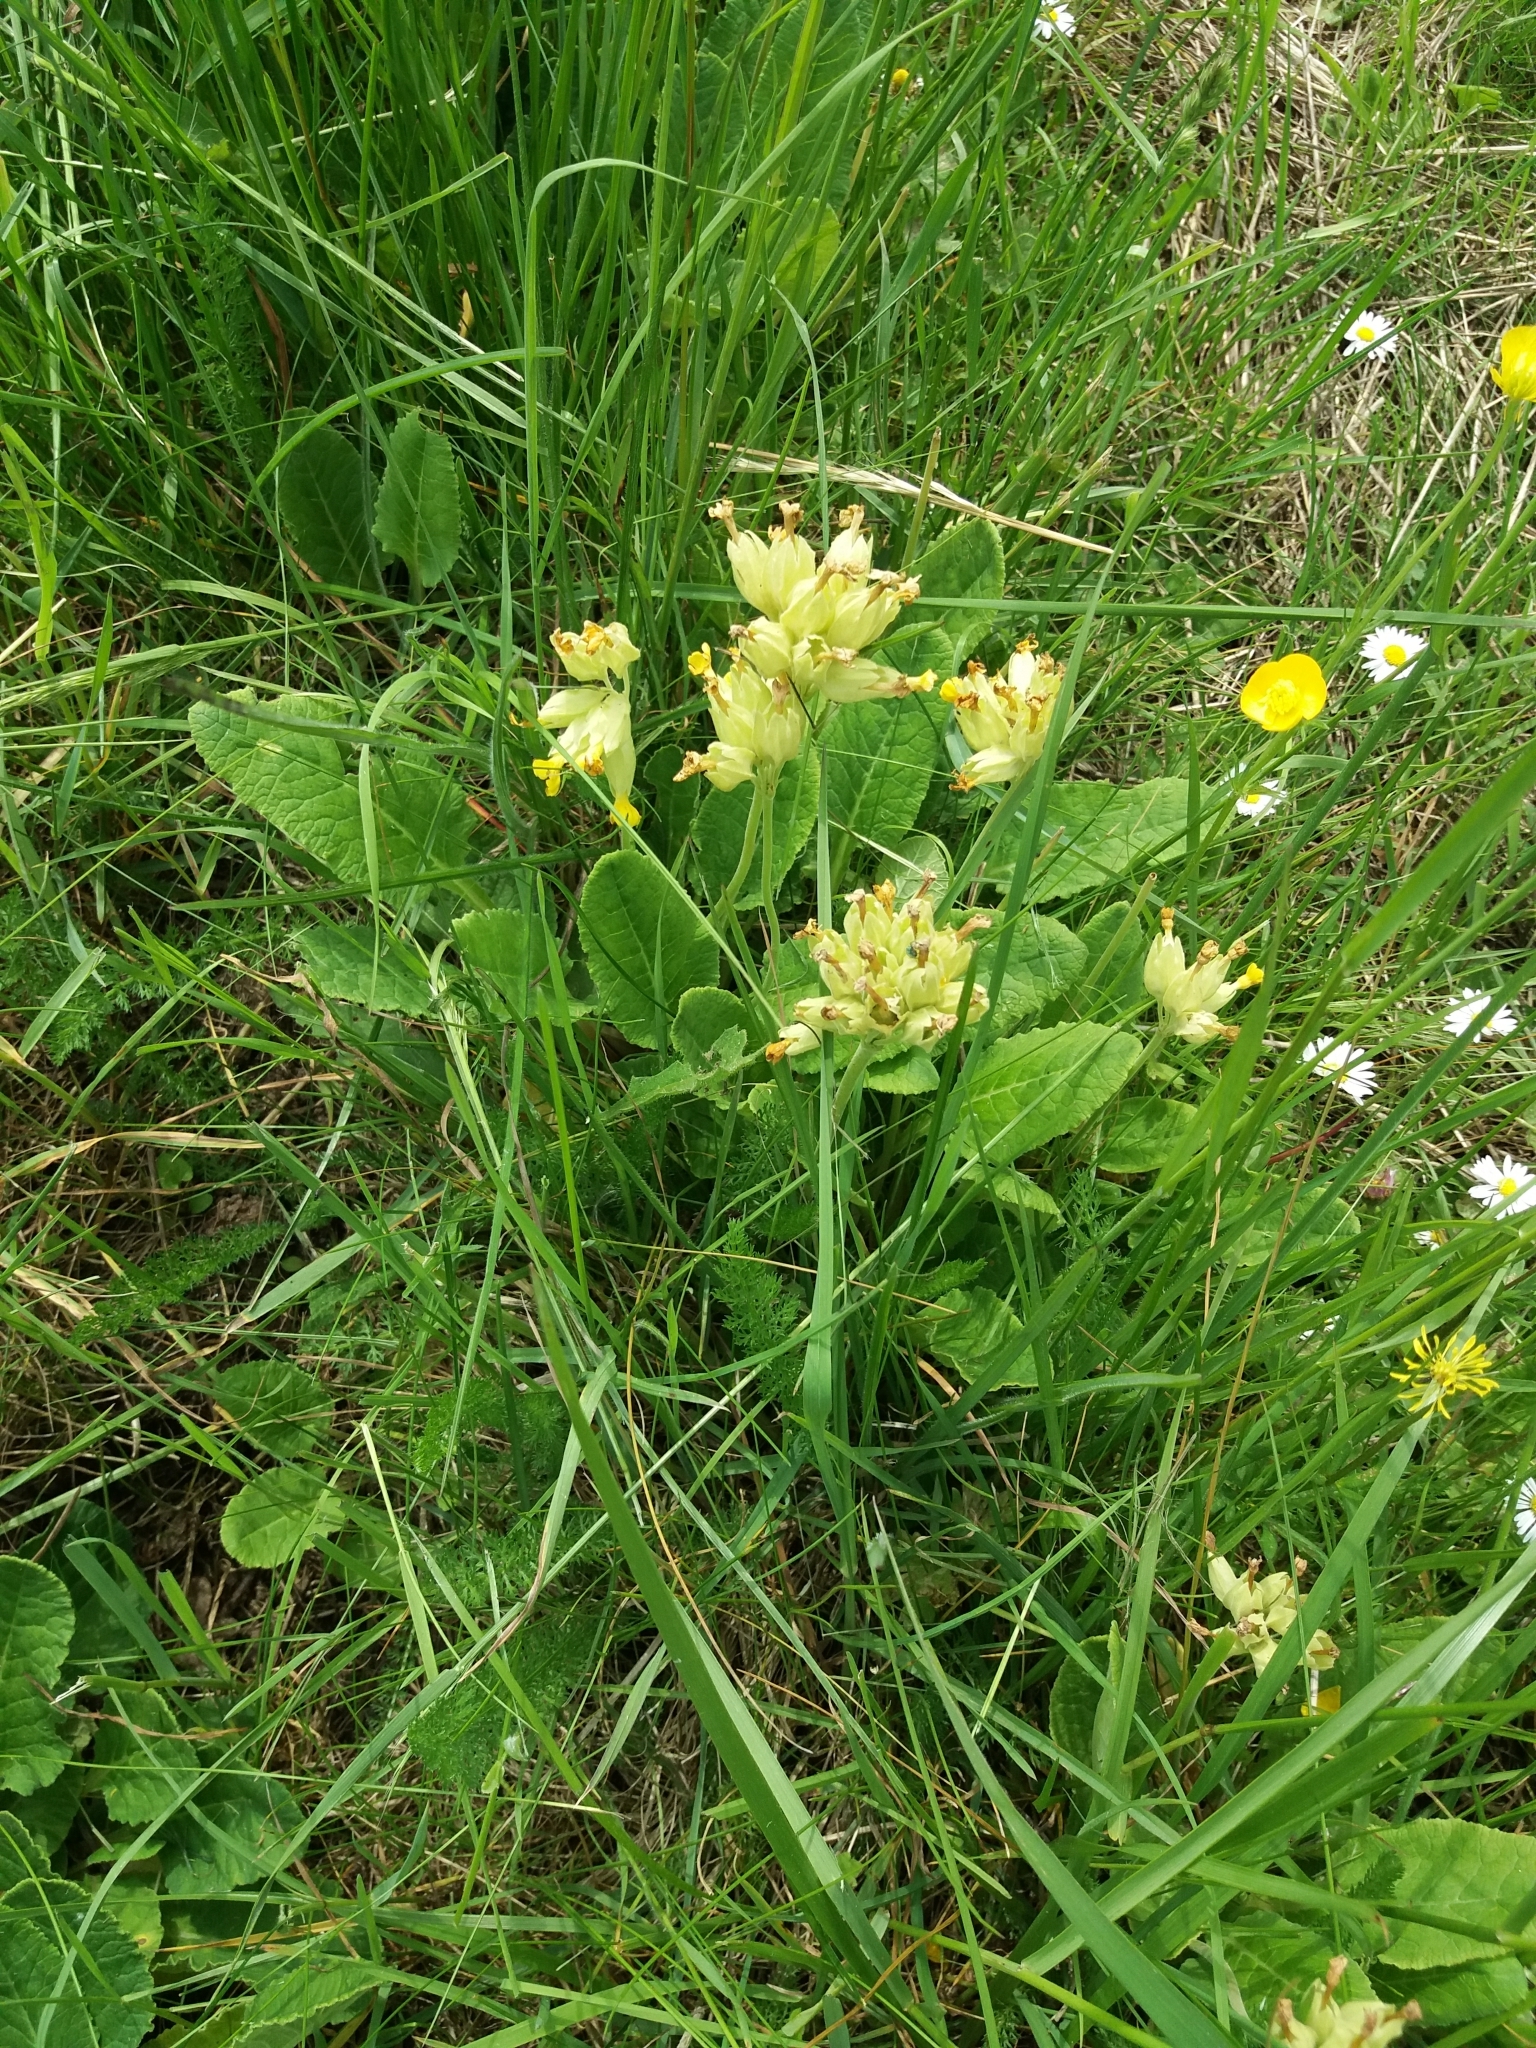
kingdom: Plantae
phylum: Tracheophyta
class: Magnoliopsida
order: Ericales
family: Primulaceae
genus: Primula
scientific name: Primula veris
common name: Cowslip
